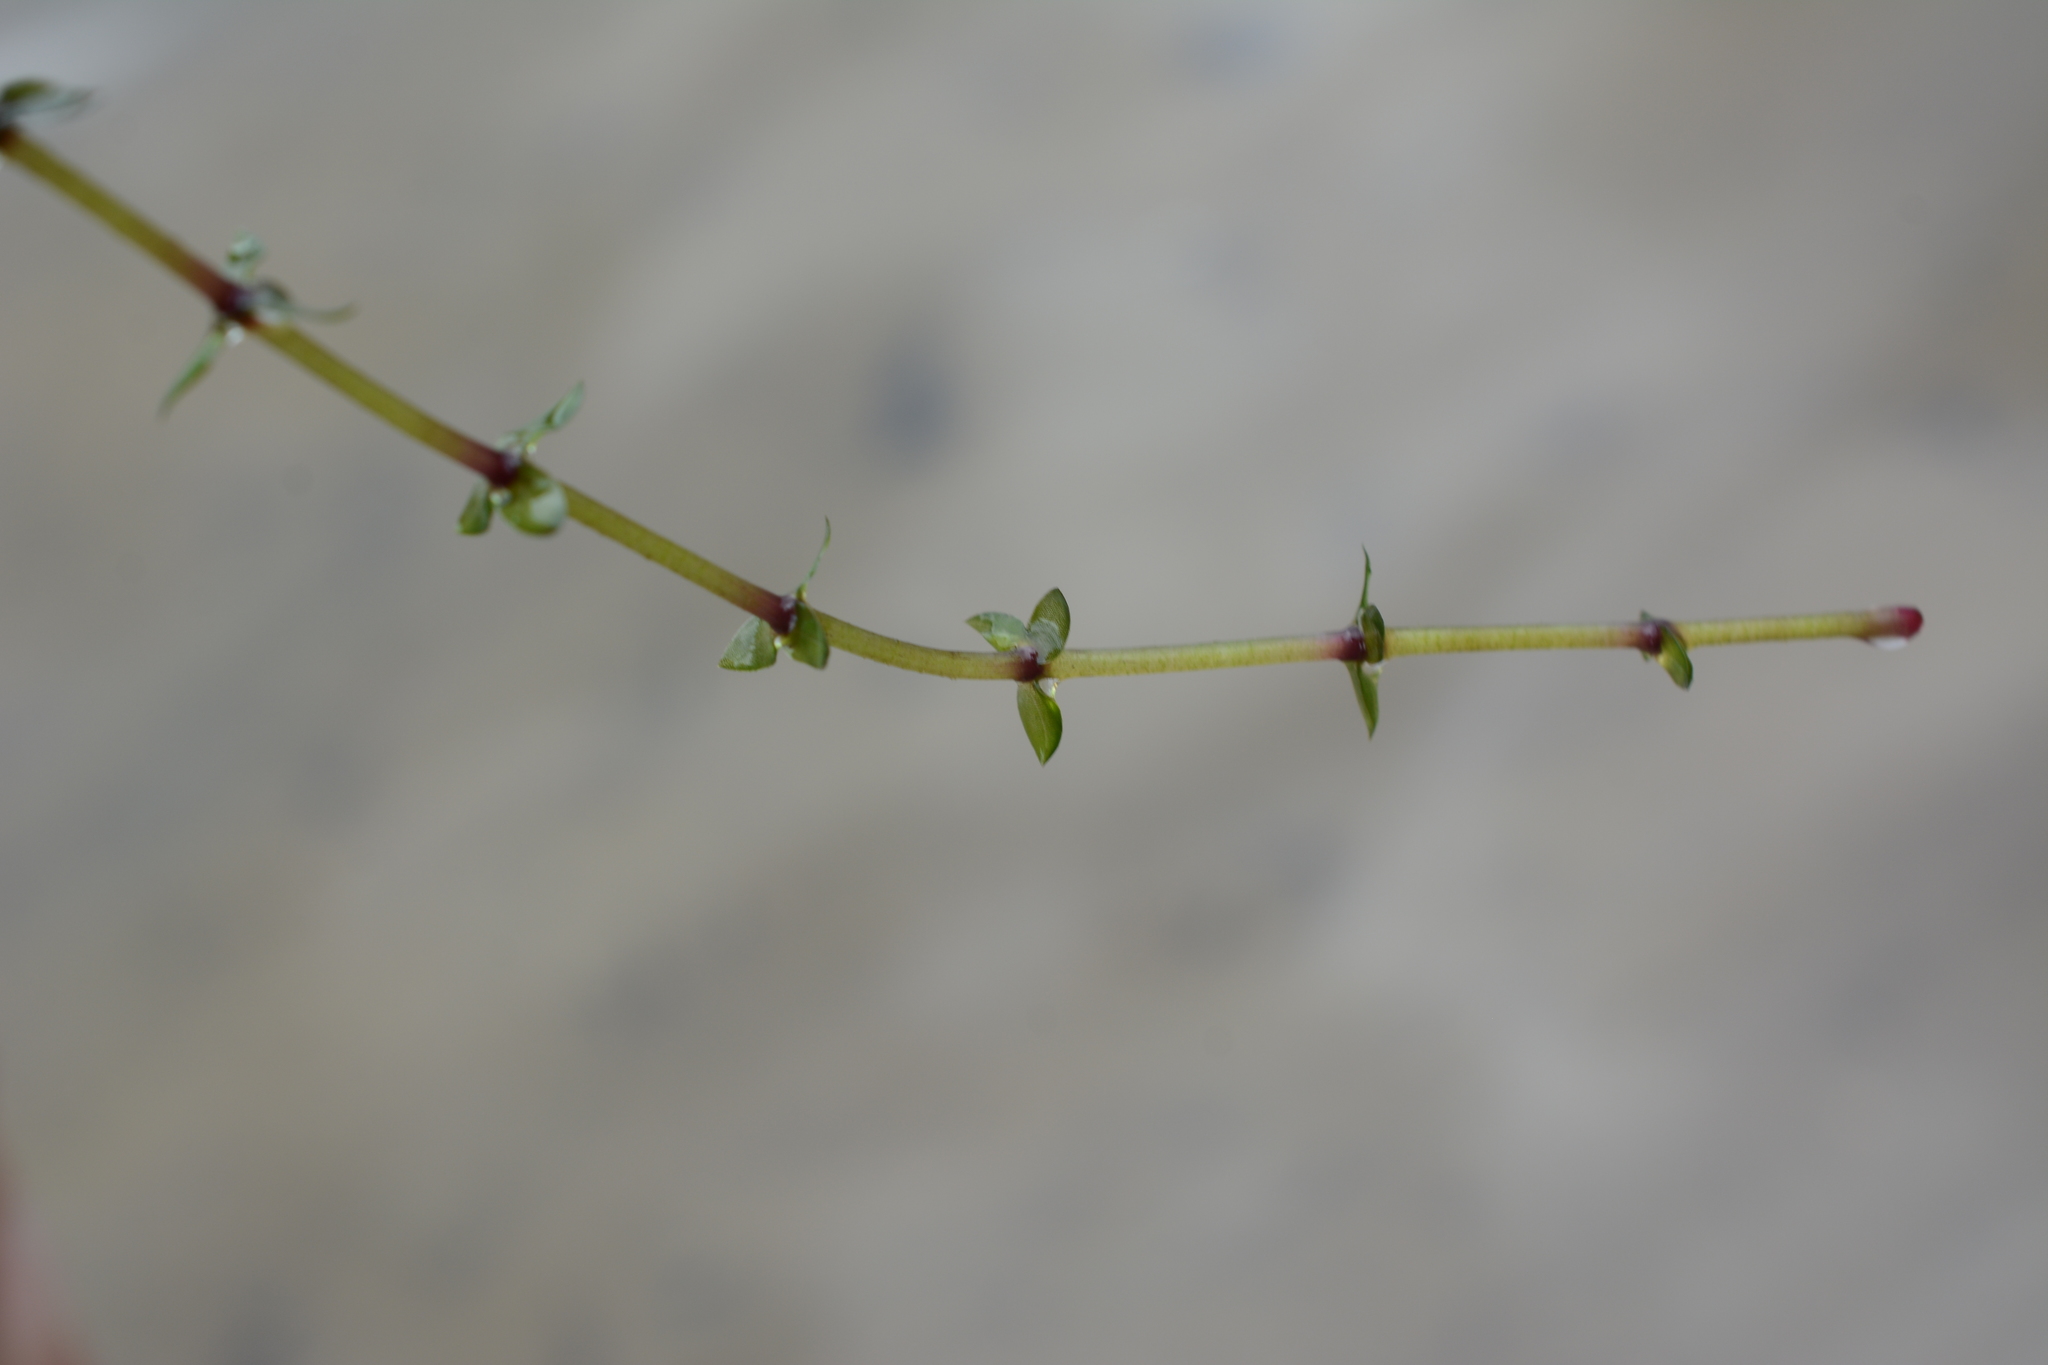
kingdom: Plantae
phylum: Tracheophyta
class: Liliopsida
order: Alismatales
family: Hydrocharitaceae
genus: Elodea
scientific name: Elodea canadensis
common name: Canadian waterweed
